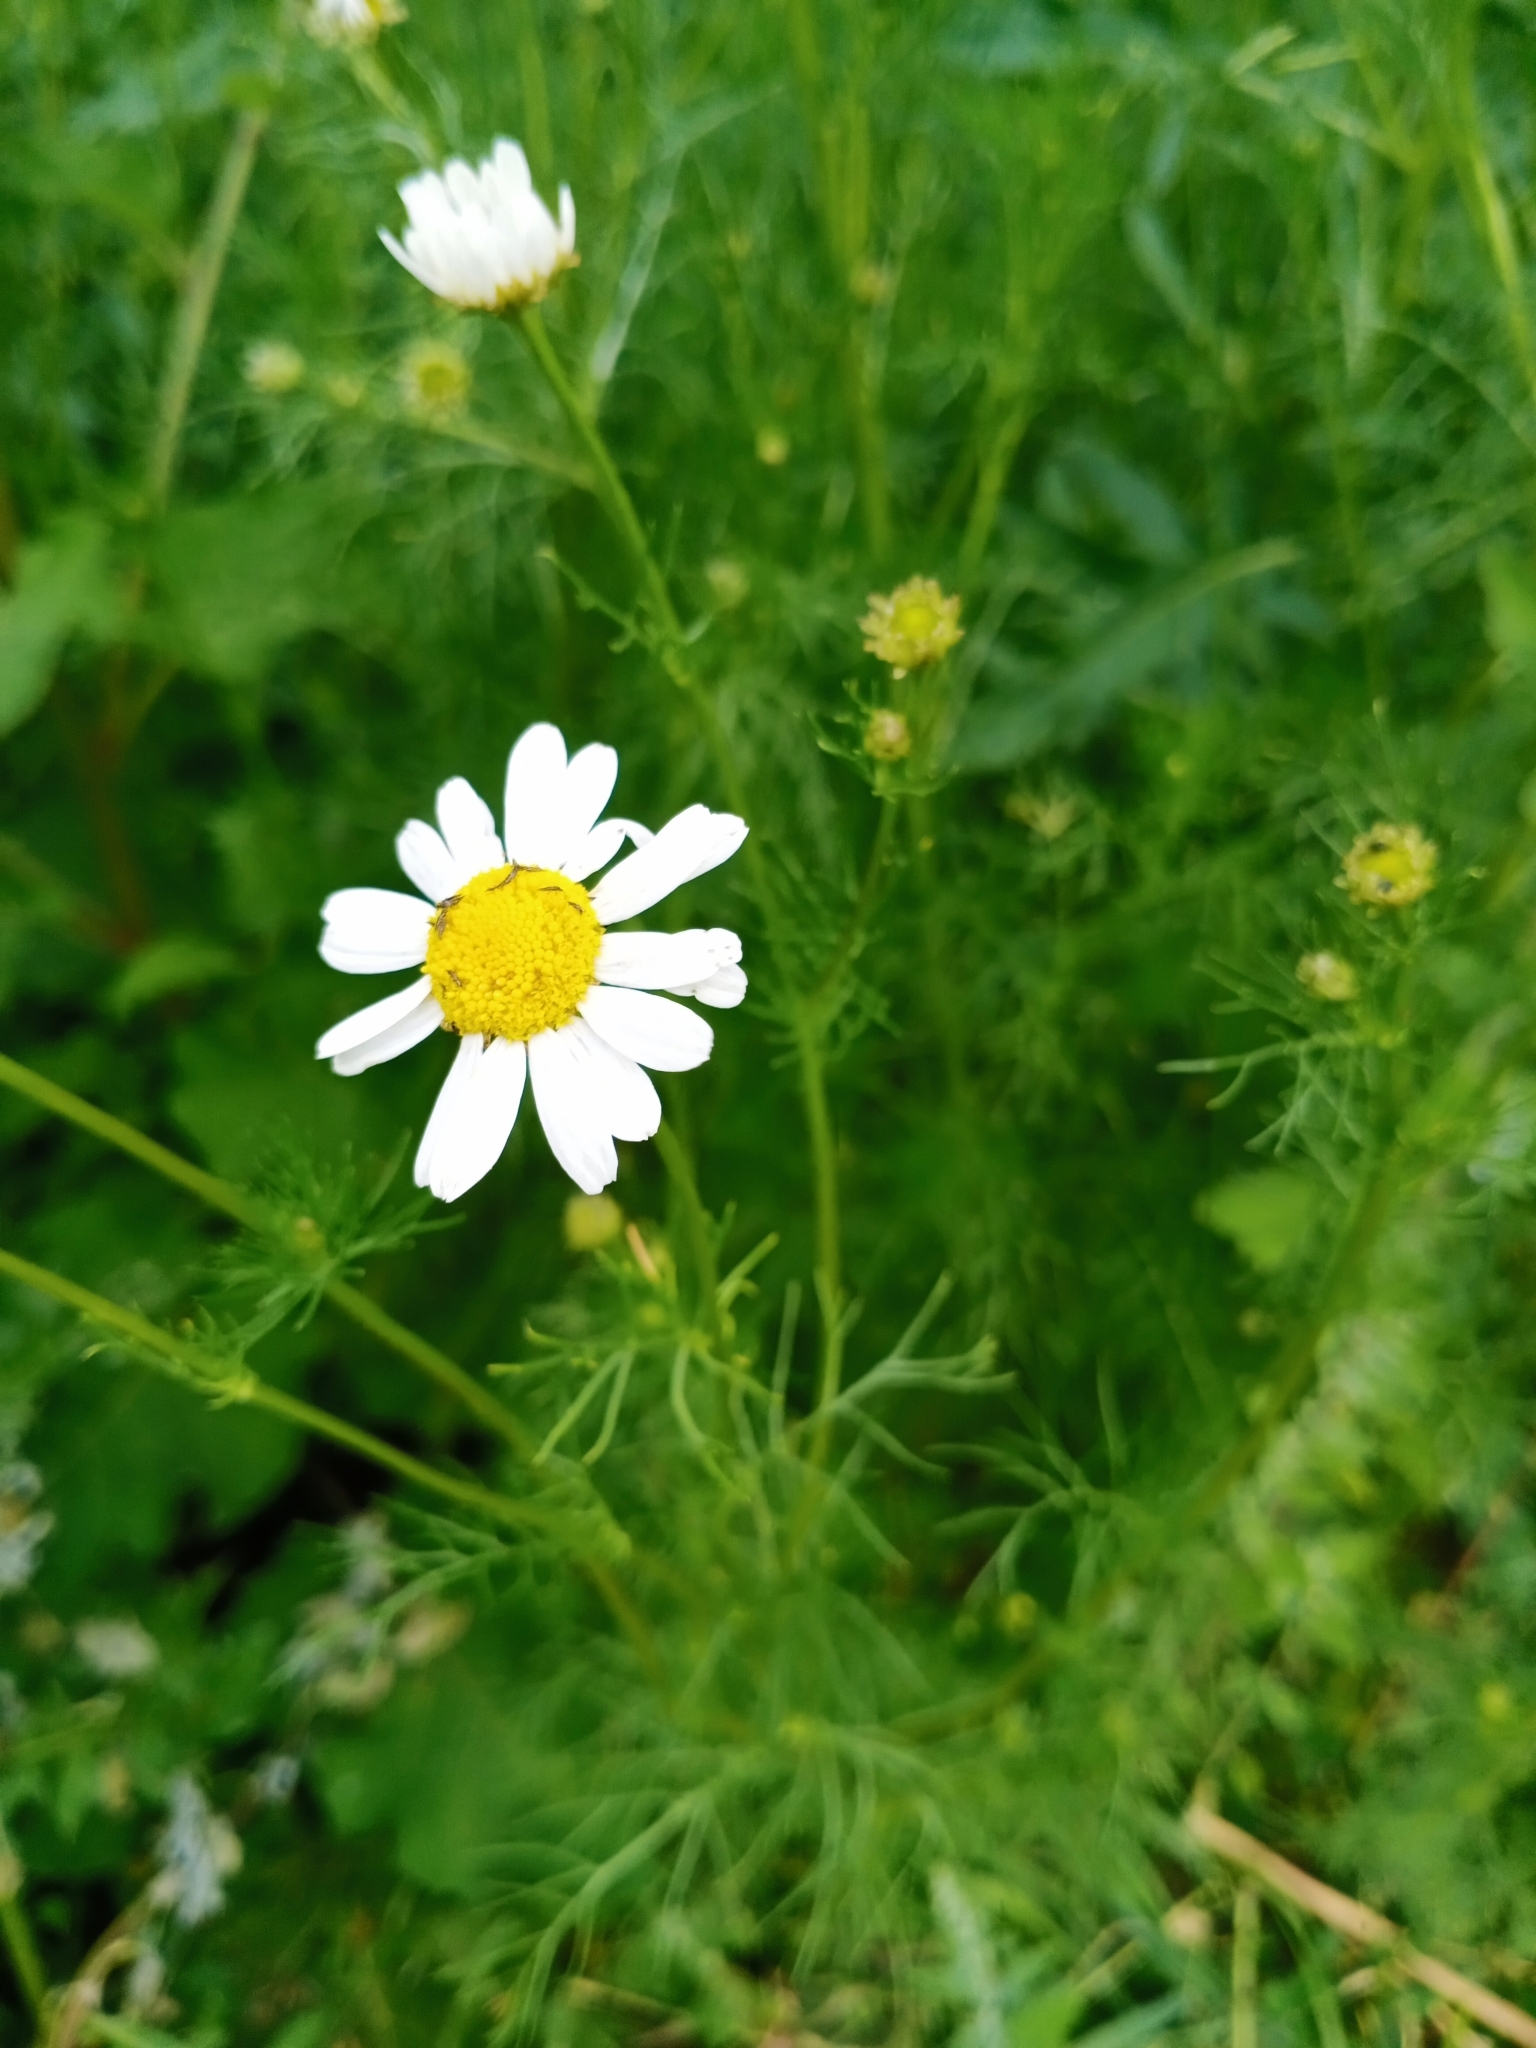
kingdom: Plantae
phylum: Tracheophyta
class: Magnoliopsida
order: Asterales
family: Asteraceae
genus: Tripleurospermum
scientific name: Tripleurospermum inodorum
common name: Scentless mayweed
